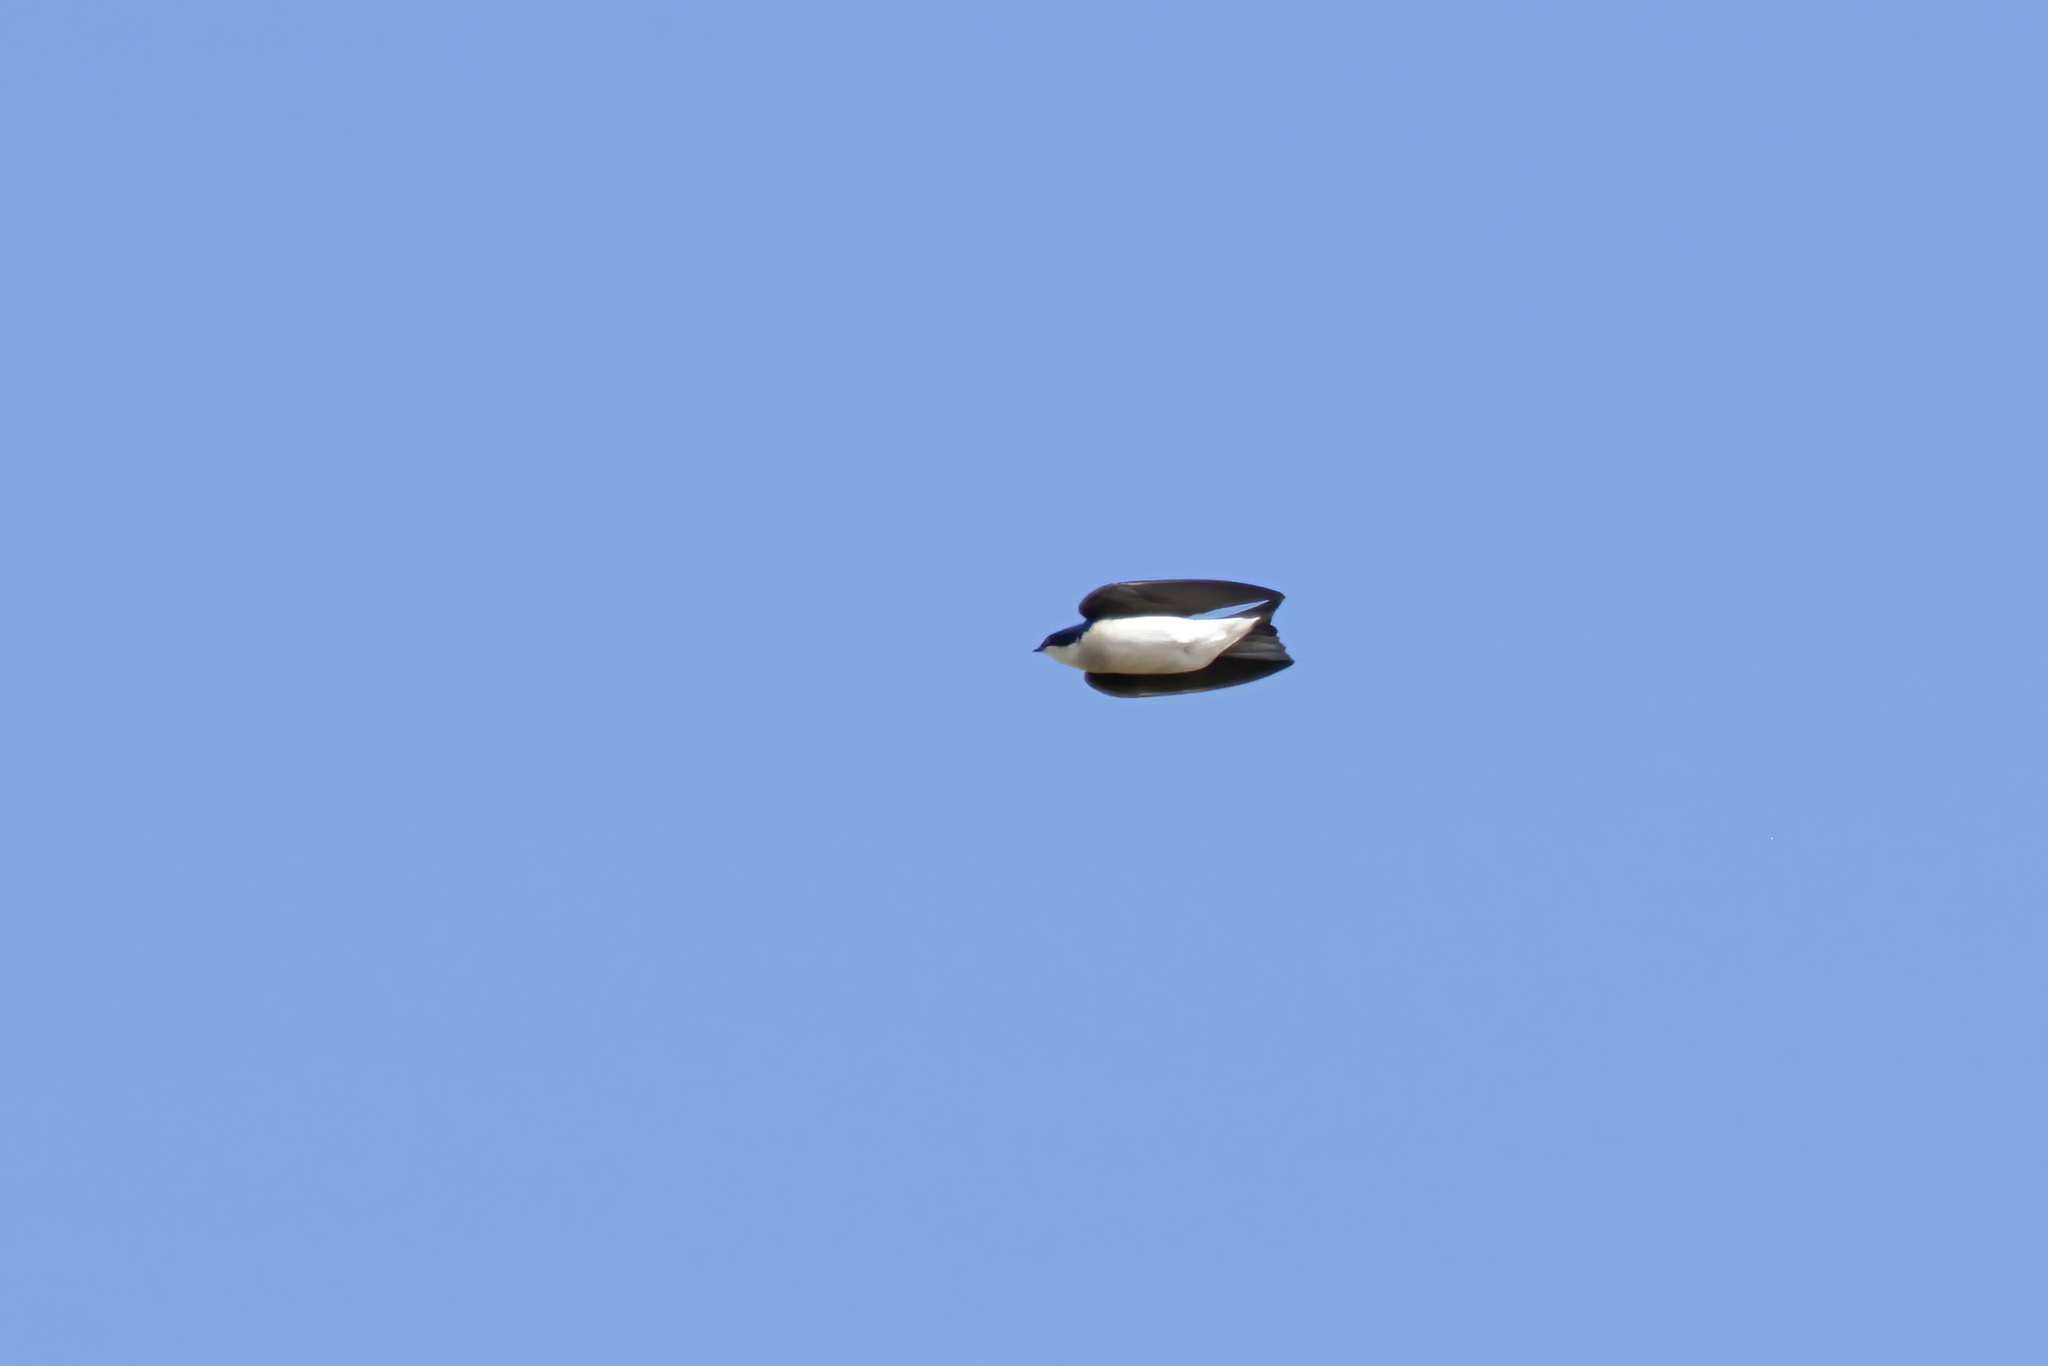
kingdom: Animalia
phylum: Chordata
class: Aves
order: Passeriformes
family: Hirundinidae
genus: Tachycineta
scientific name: Tachycineta bicolor
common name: Tree swallow
